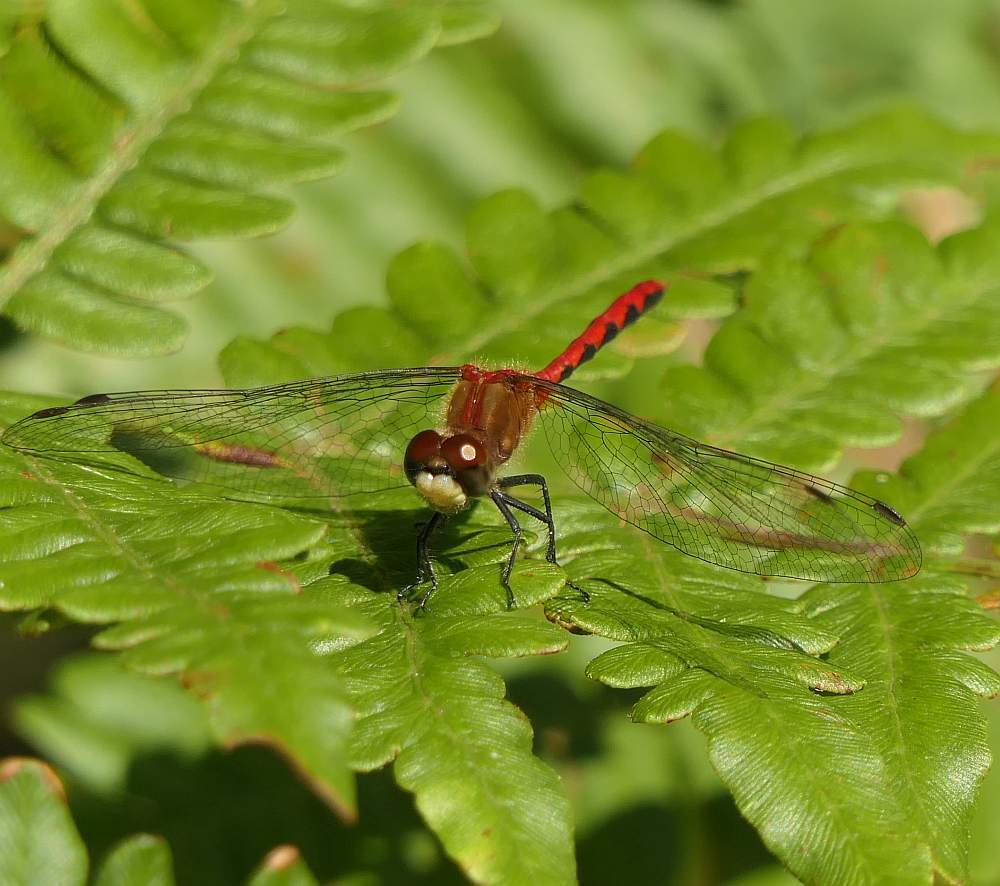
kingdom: Animalia
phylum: Arthropoda
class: Insecta
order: Odonata
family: Libellulidae
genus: Sympetrum
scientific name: Sympetrum obtrusum
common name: White-faced meadowhawk
